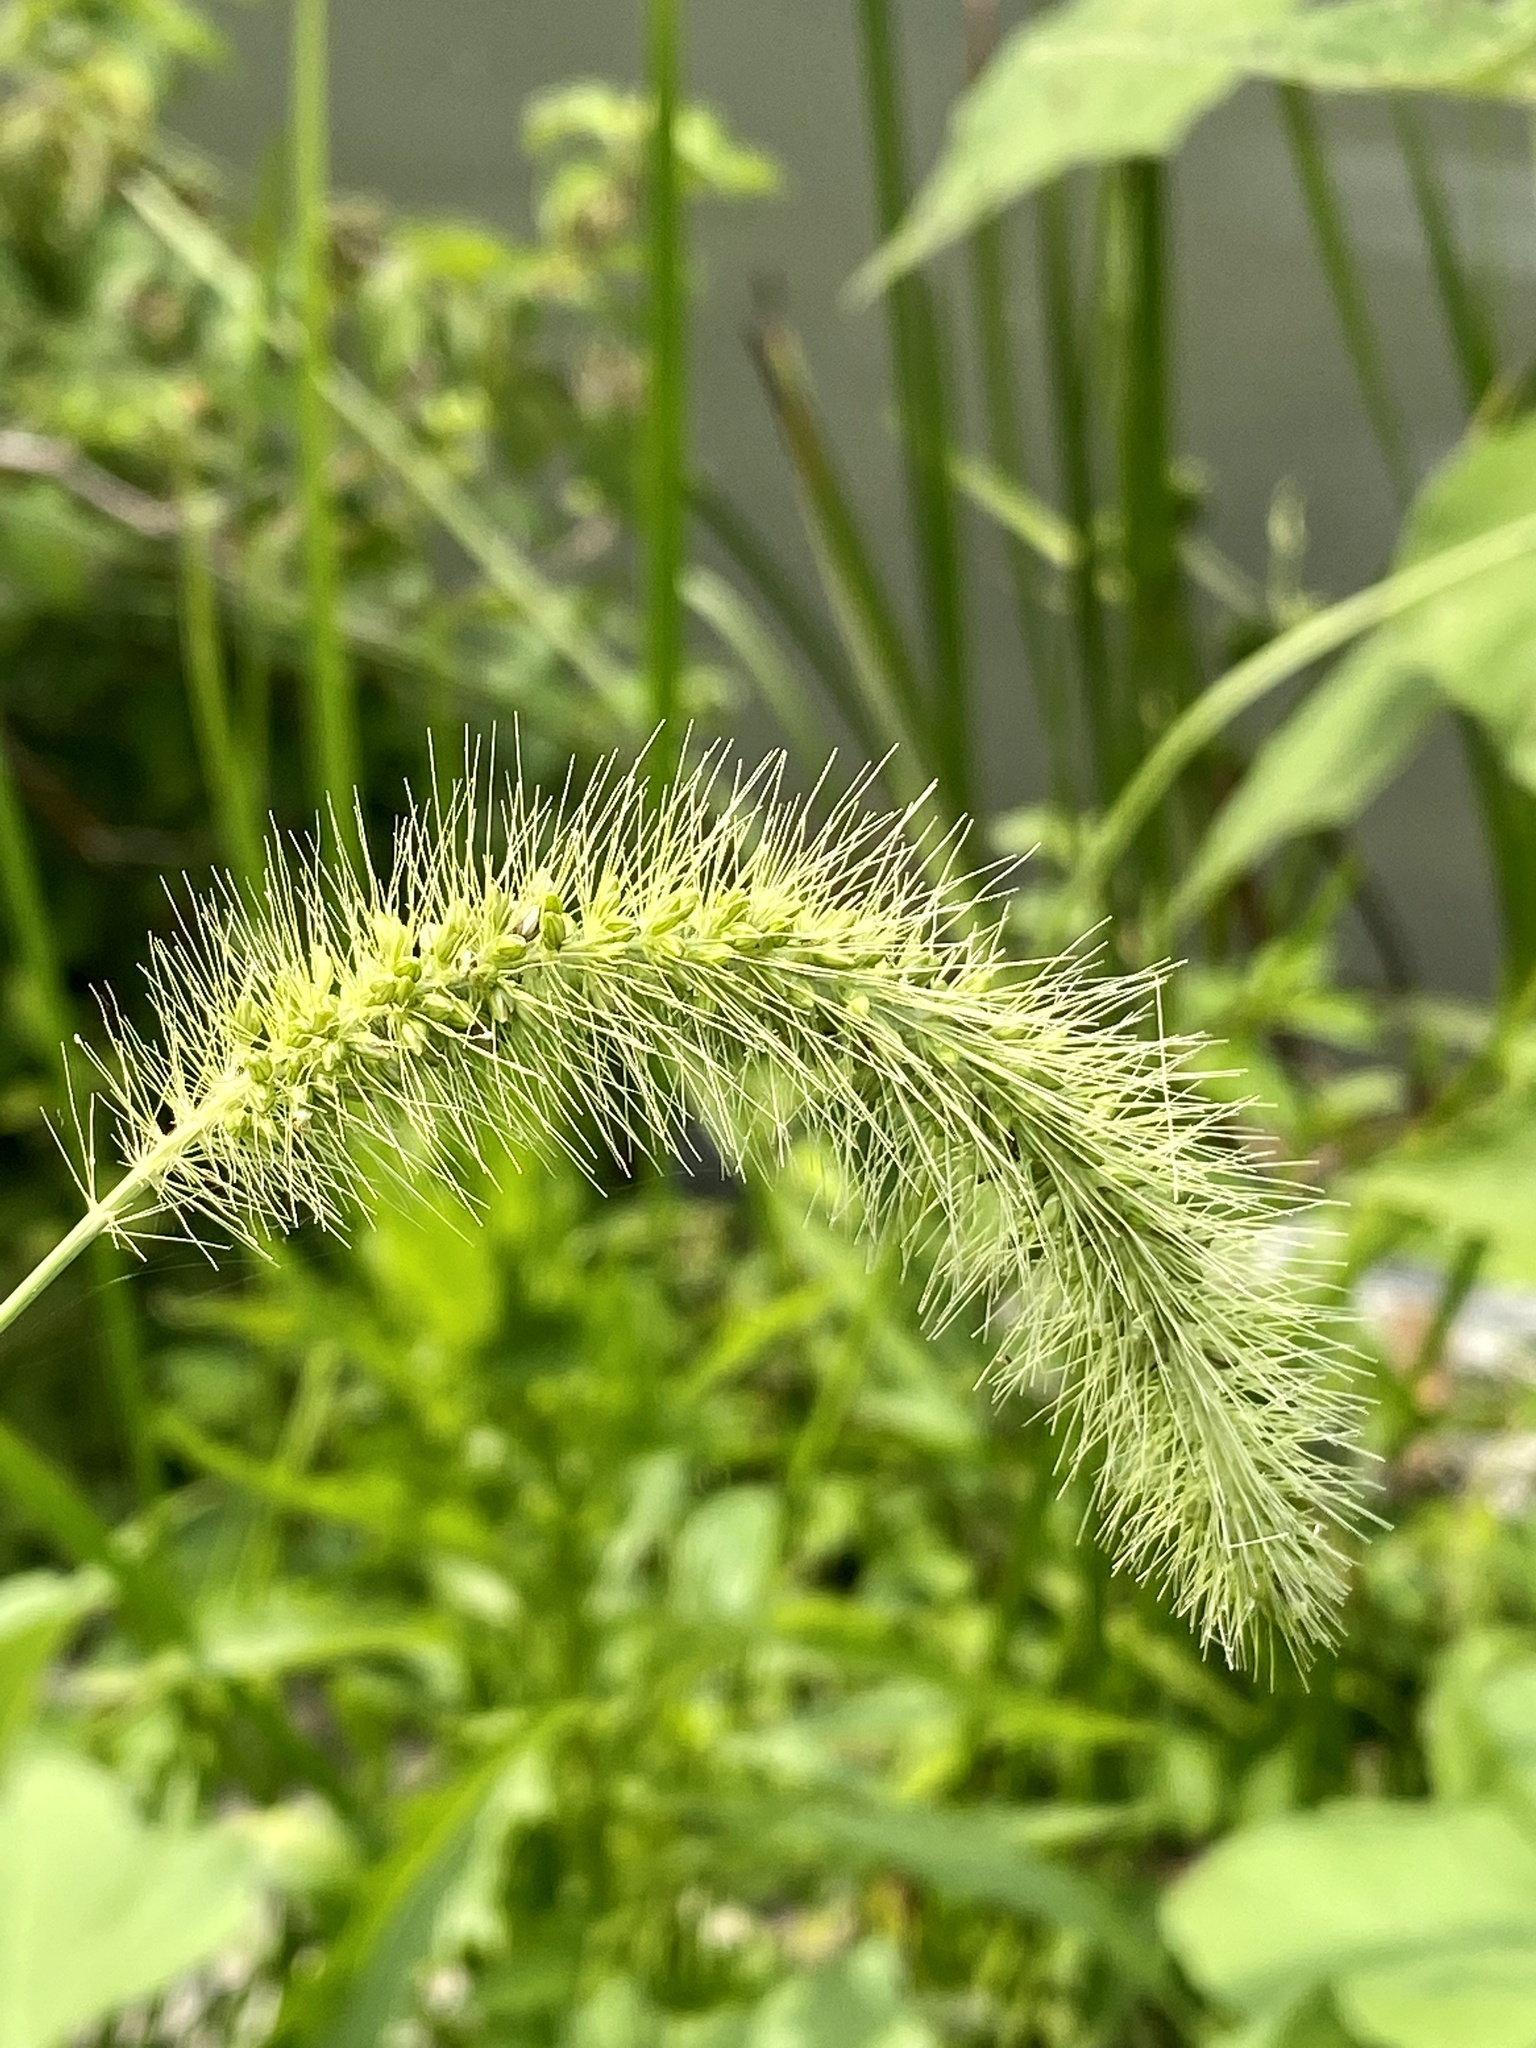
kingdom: Plantae
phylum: Tracheophyta
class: Liliopsida
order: Poales
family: Poaceae
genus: Setaria
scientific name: Setaria faberi
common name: Nodding bristle-grass
